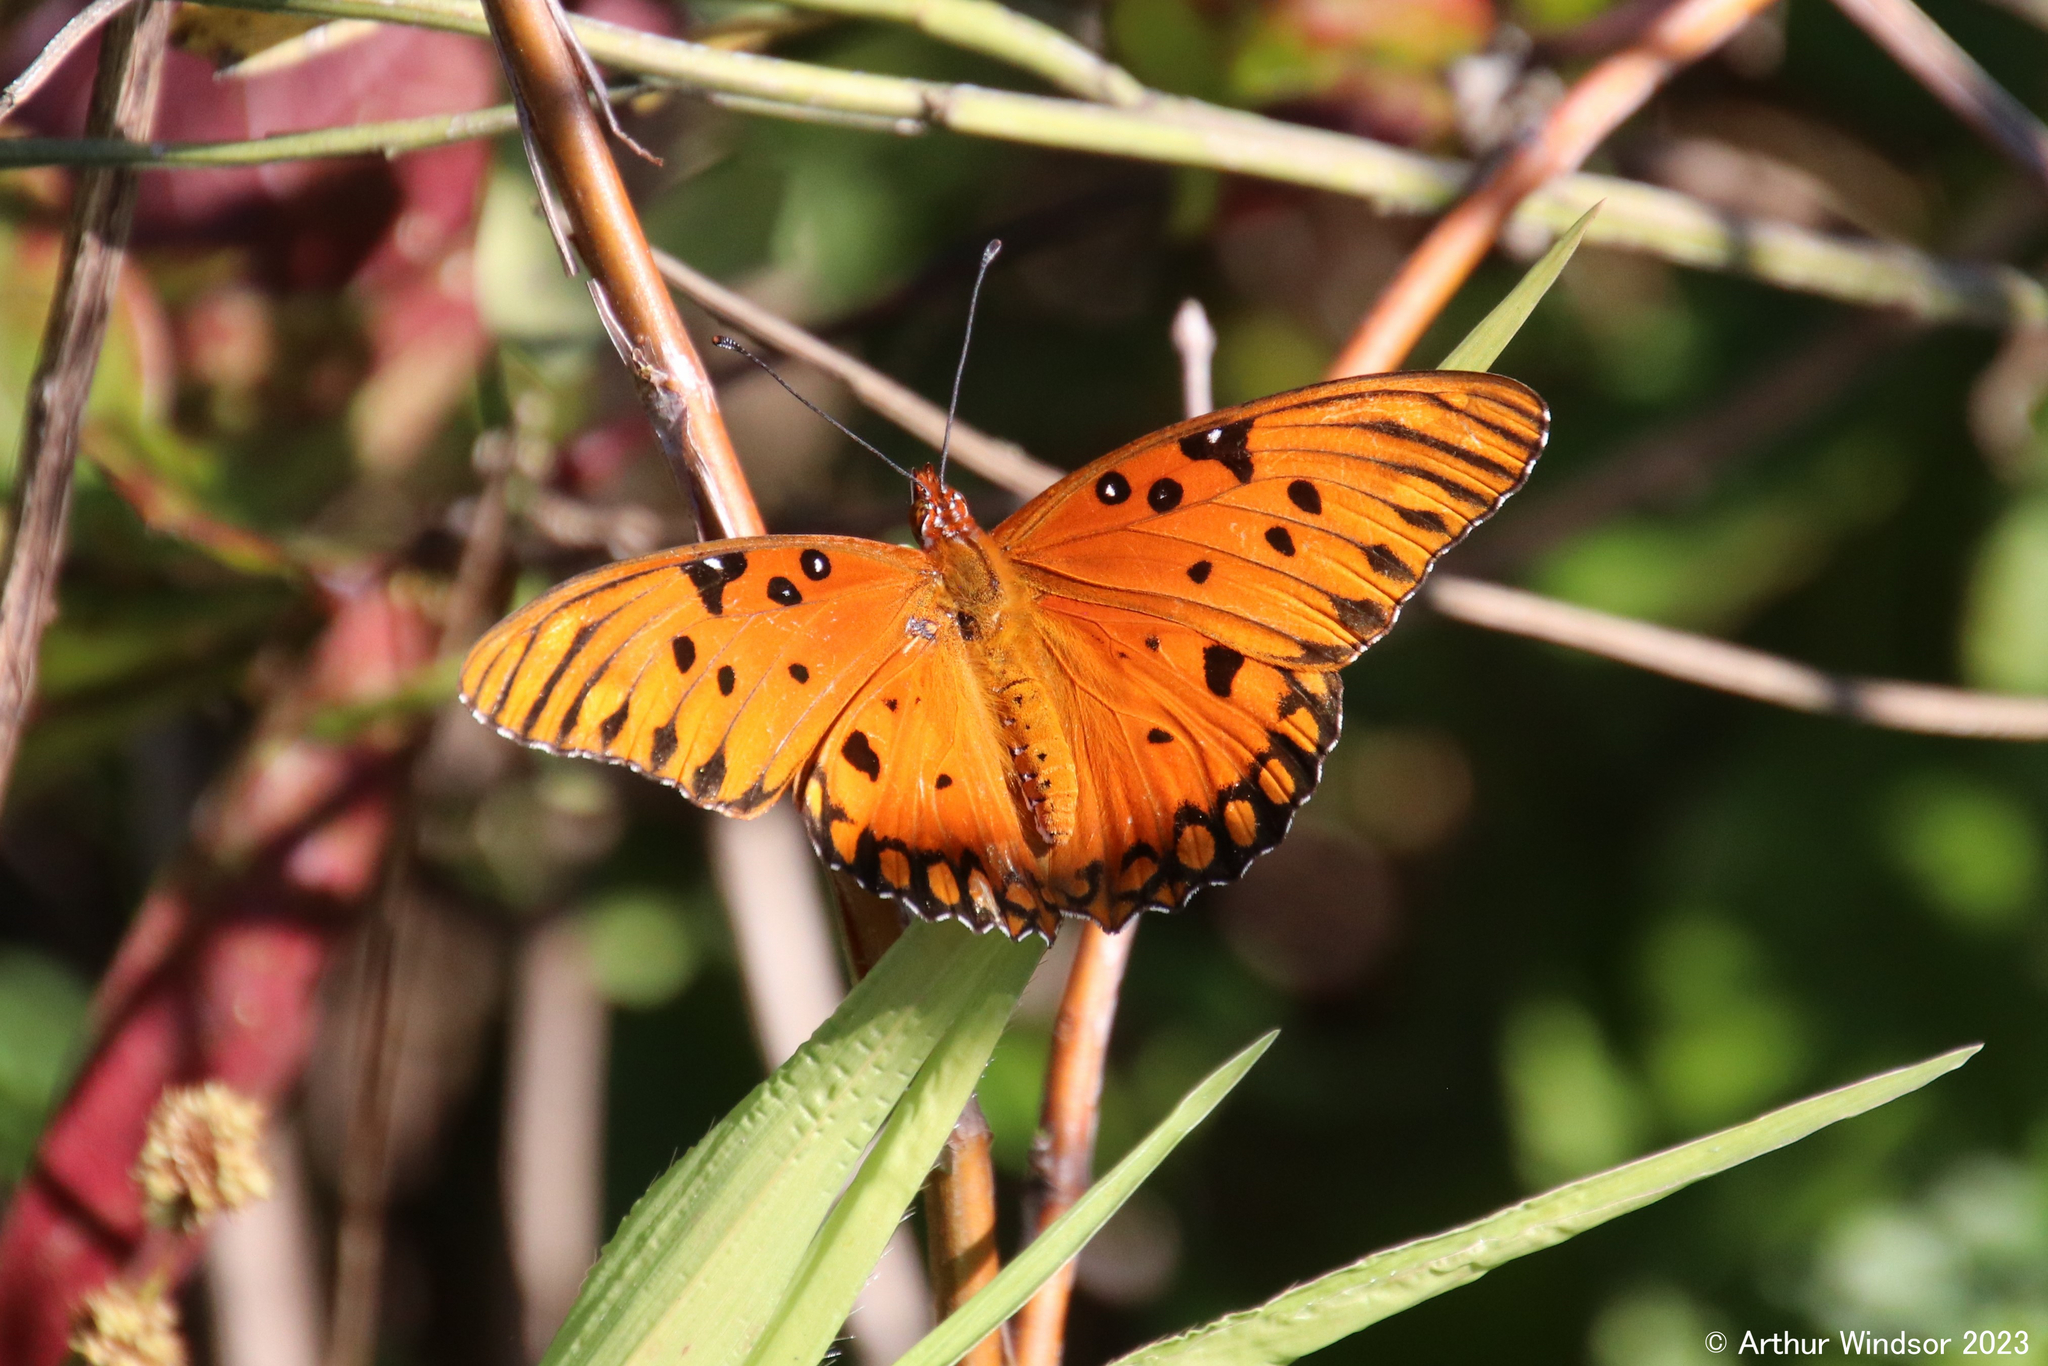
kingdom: Animalia
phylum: Arthropoda
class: Insecta
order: Lepidoptera
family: Nymphalidae
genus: Dione
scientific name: Dione vanillae
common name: Gulf fritillary
